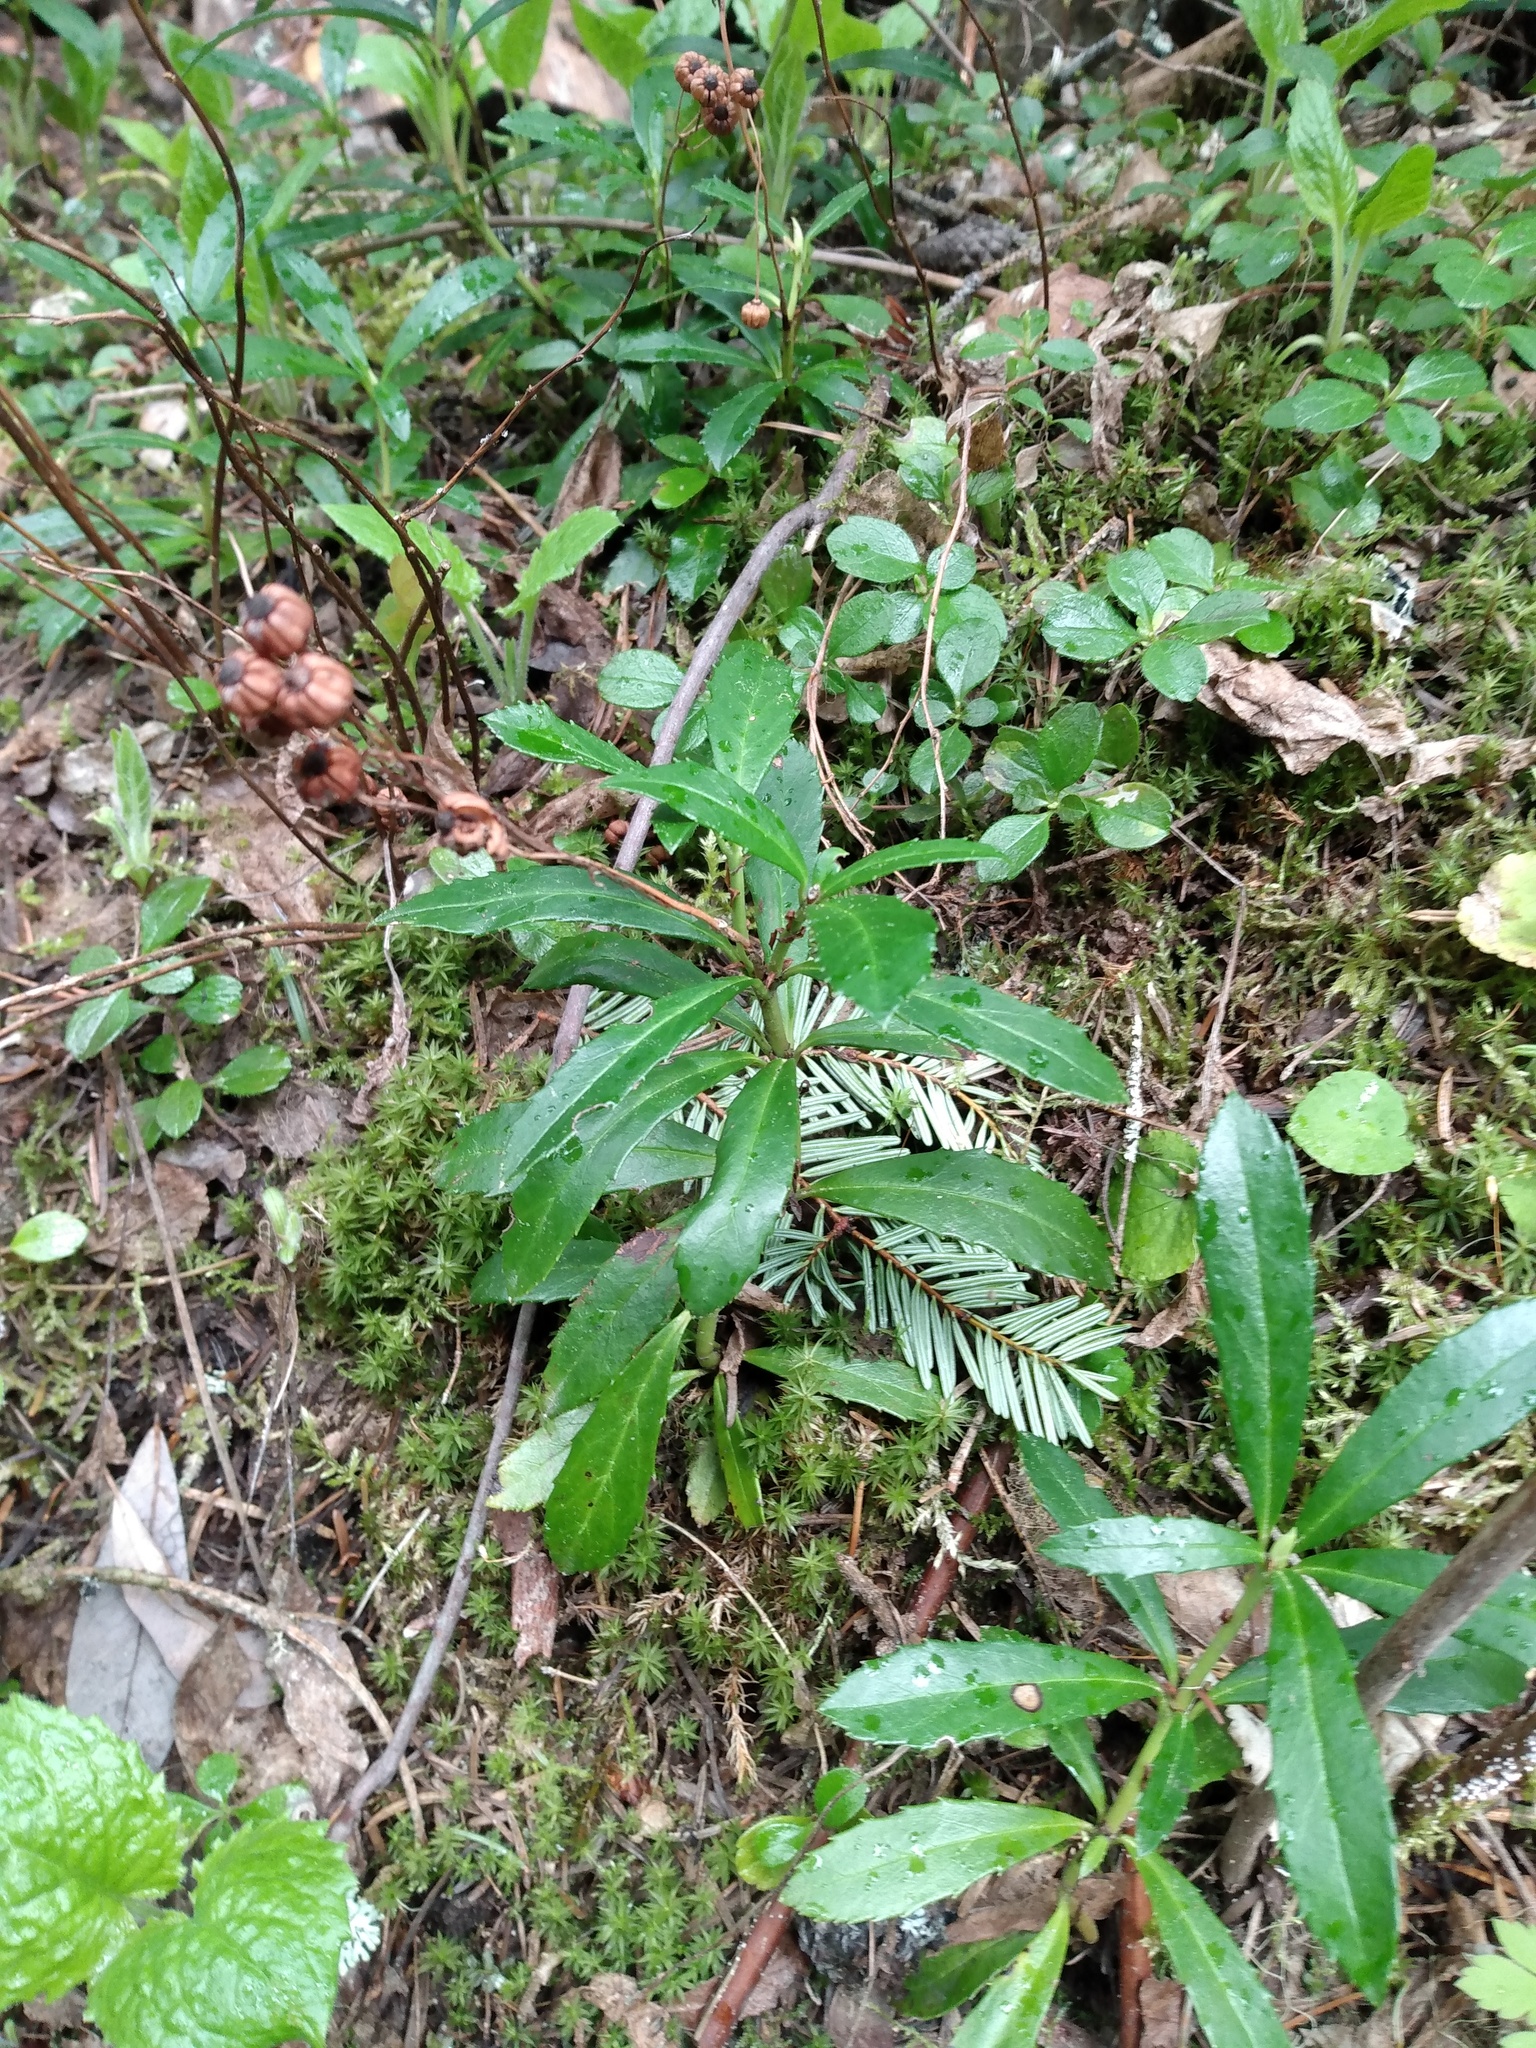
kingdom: Plantae
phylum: Tracheophyta
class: Magnoliopsida
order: Ericales
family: Ericaceae
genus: Chimaphila
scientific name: Chimaphila umbellata
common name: Pipsissewa
